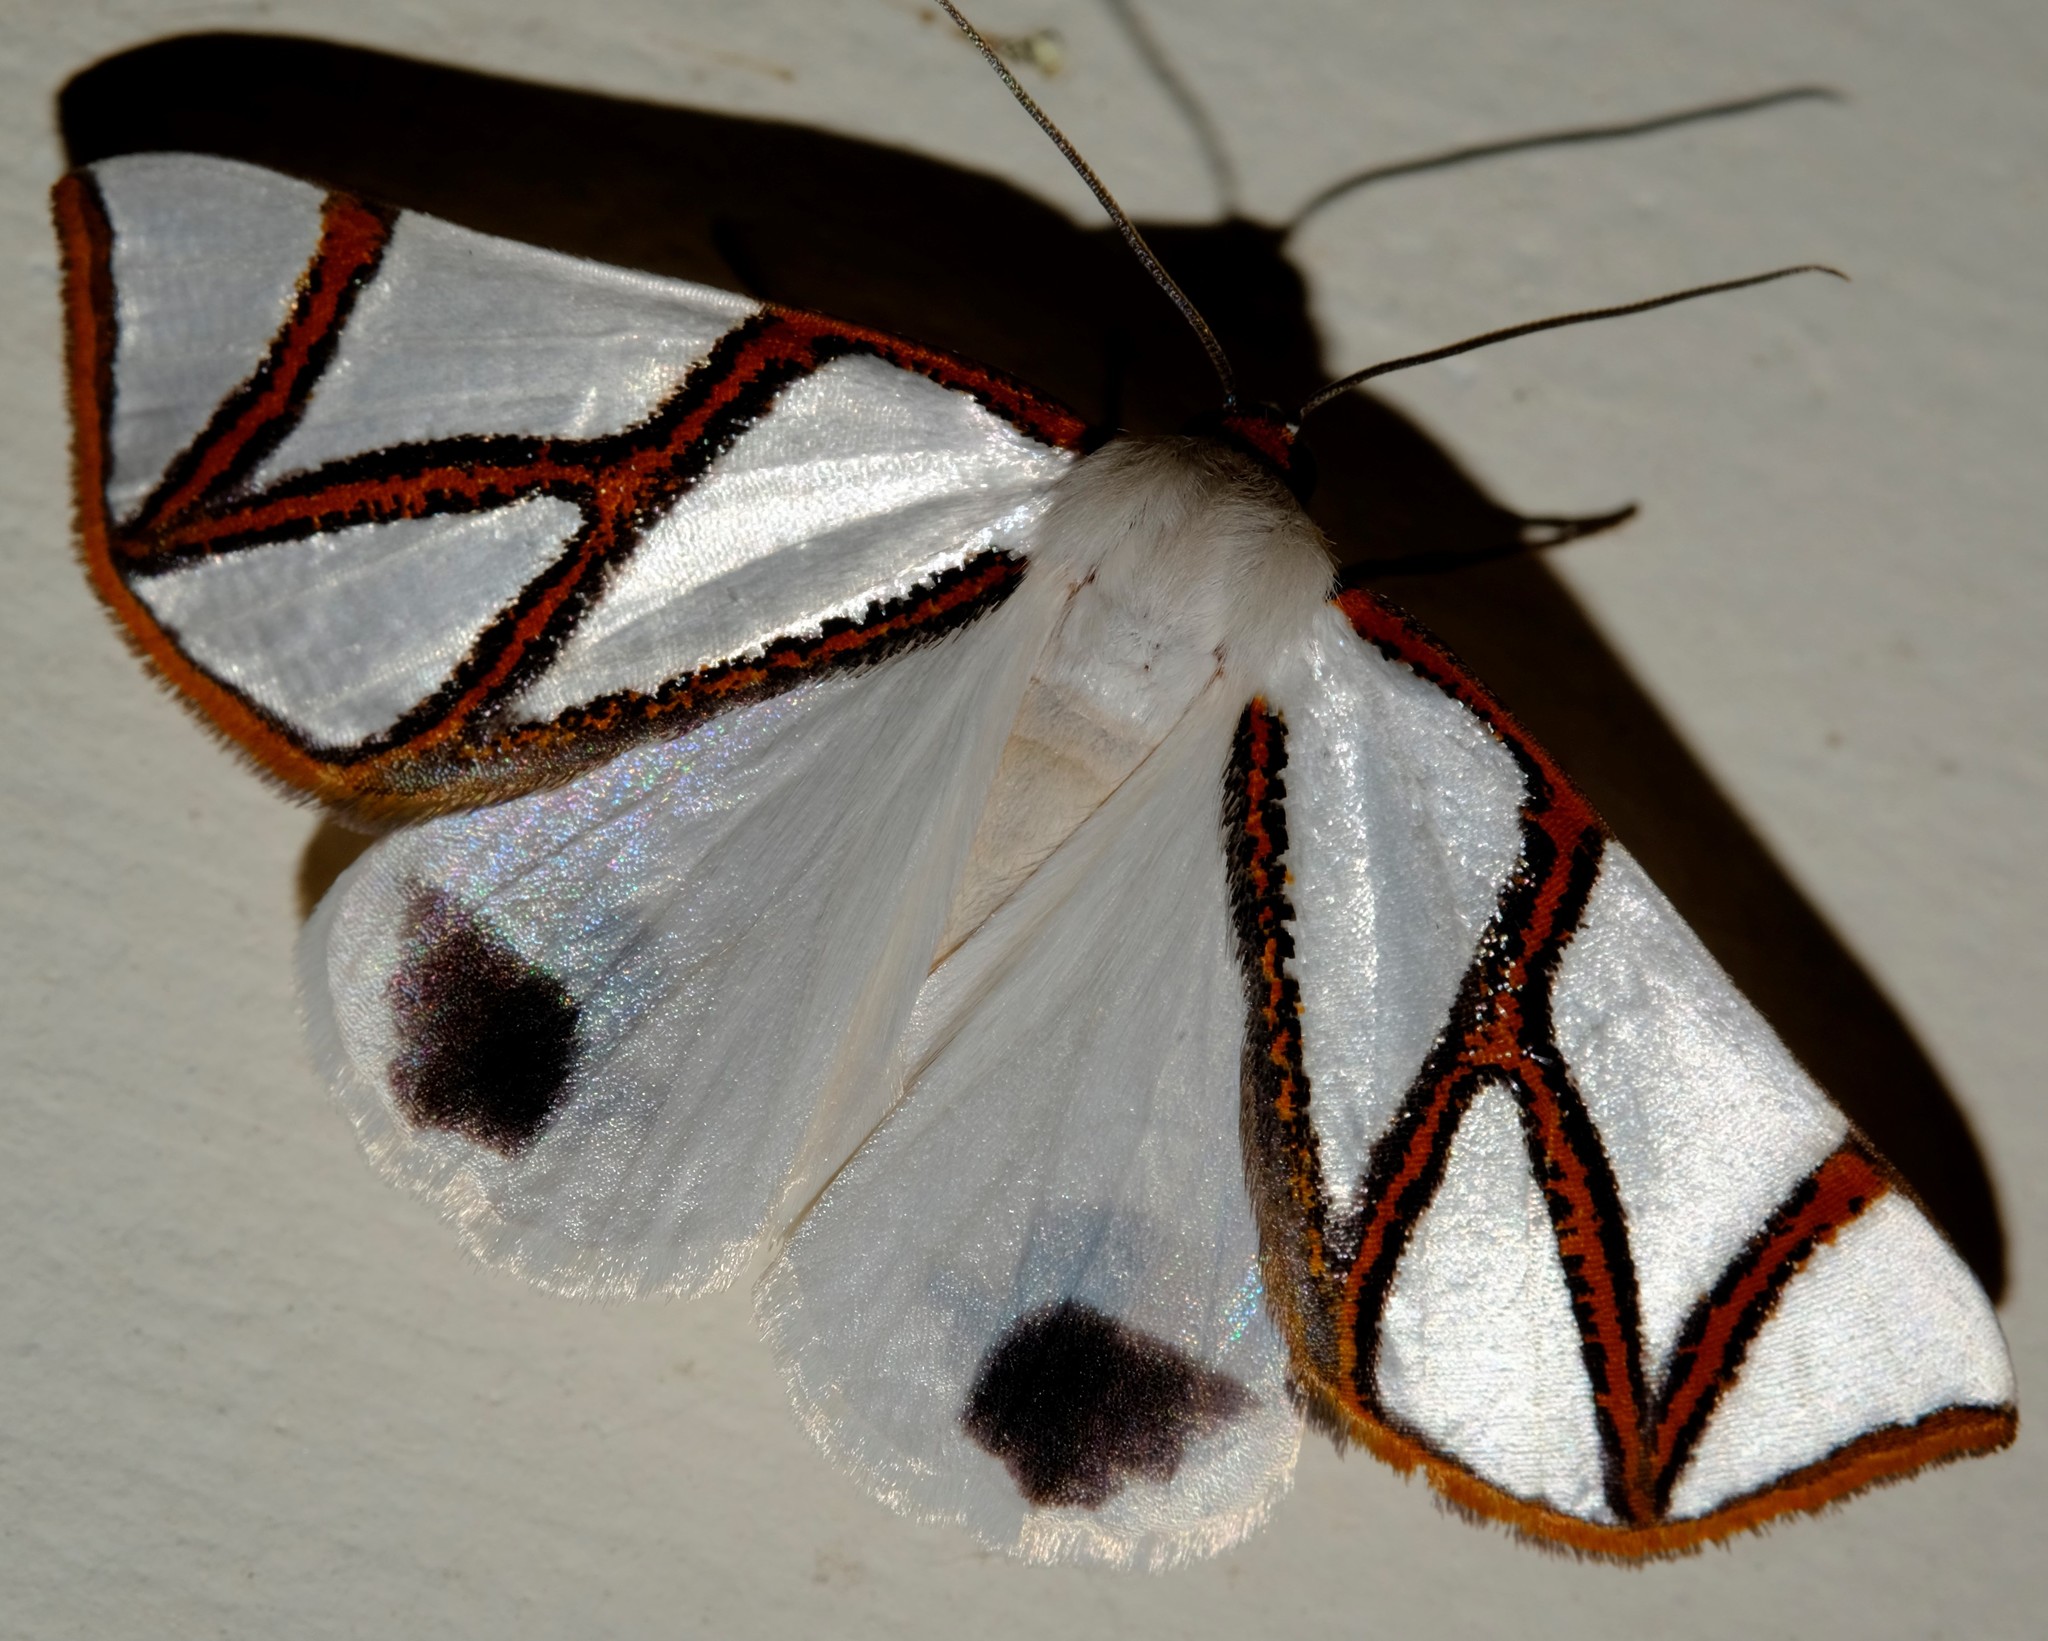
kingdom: Animalia
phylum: Arthropoda
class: Insecta
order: Lepidoptera
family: Geometridae
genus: Thalaina
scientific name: Thalaina clara
